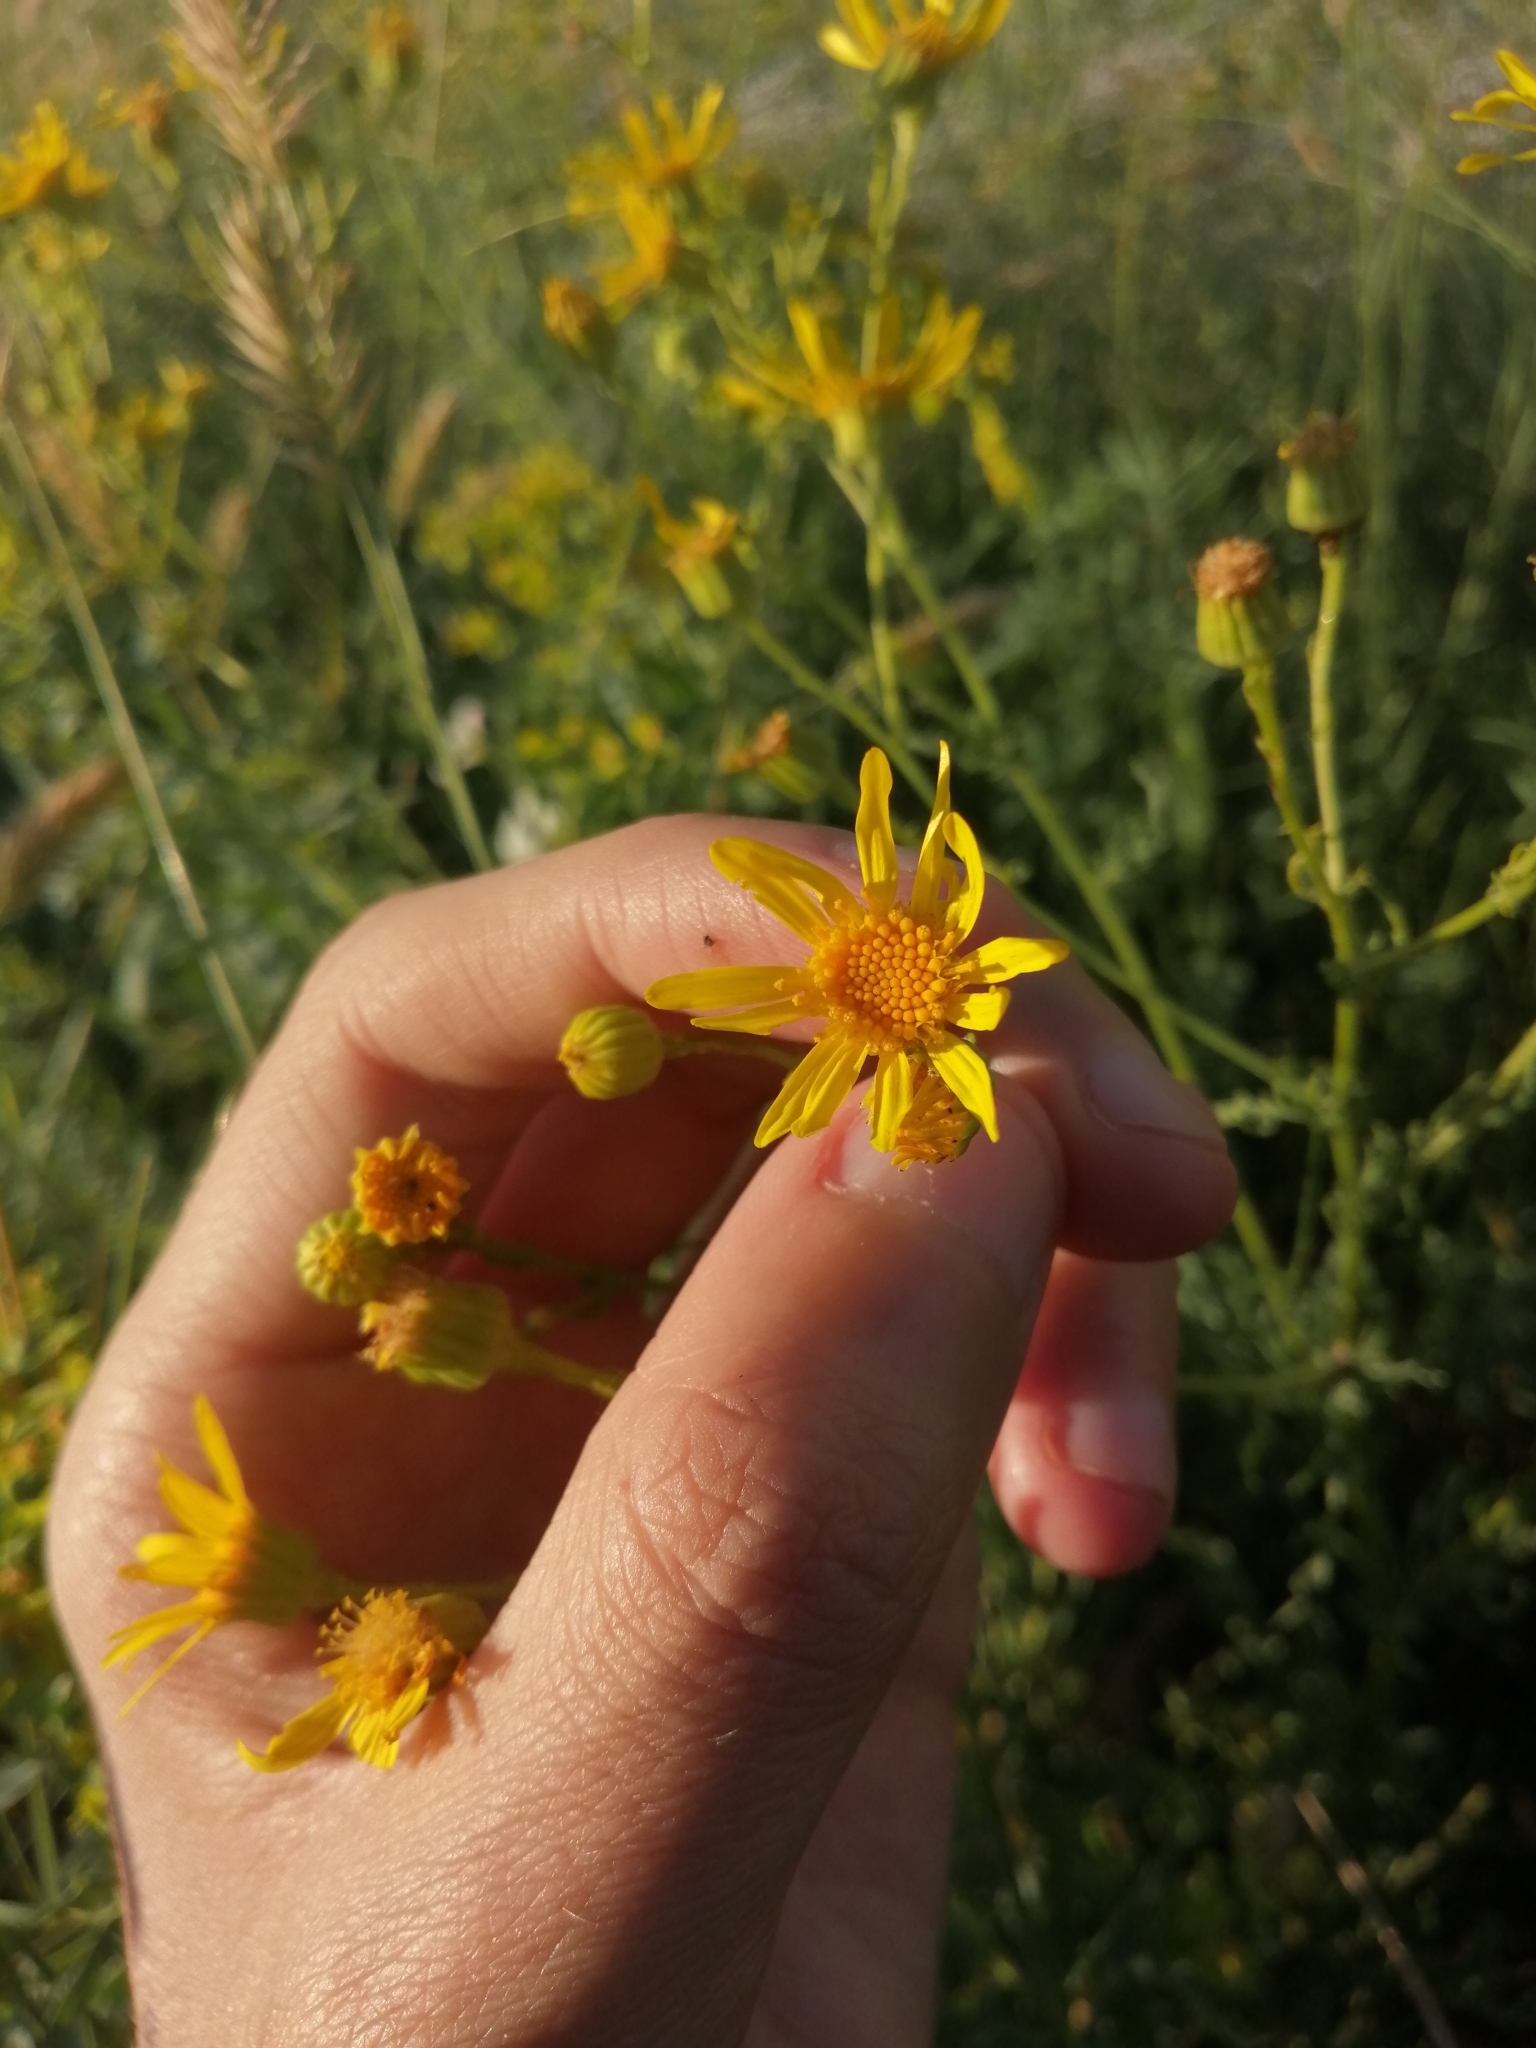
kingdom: Plantae
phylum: Tracheophyta
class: Magnoliopsida
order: Asterales
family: Asteraceae
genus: Jacobaea
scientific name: Jacobaea vulgaris
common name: Stinking willie
